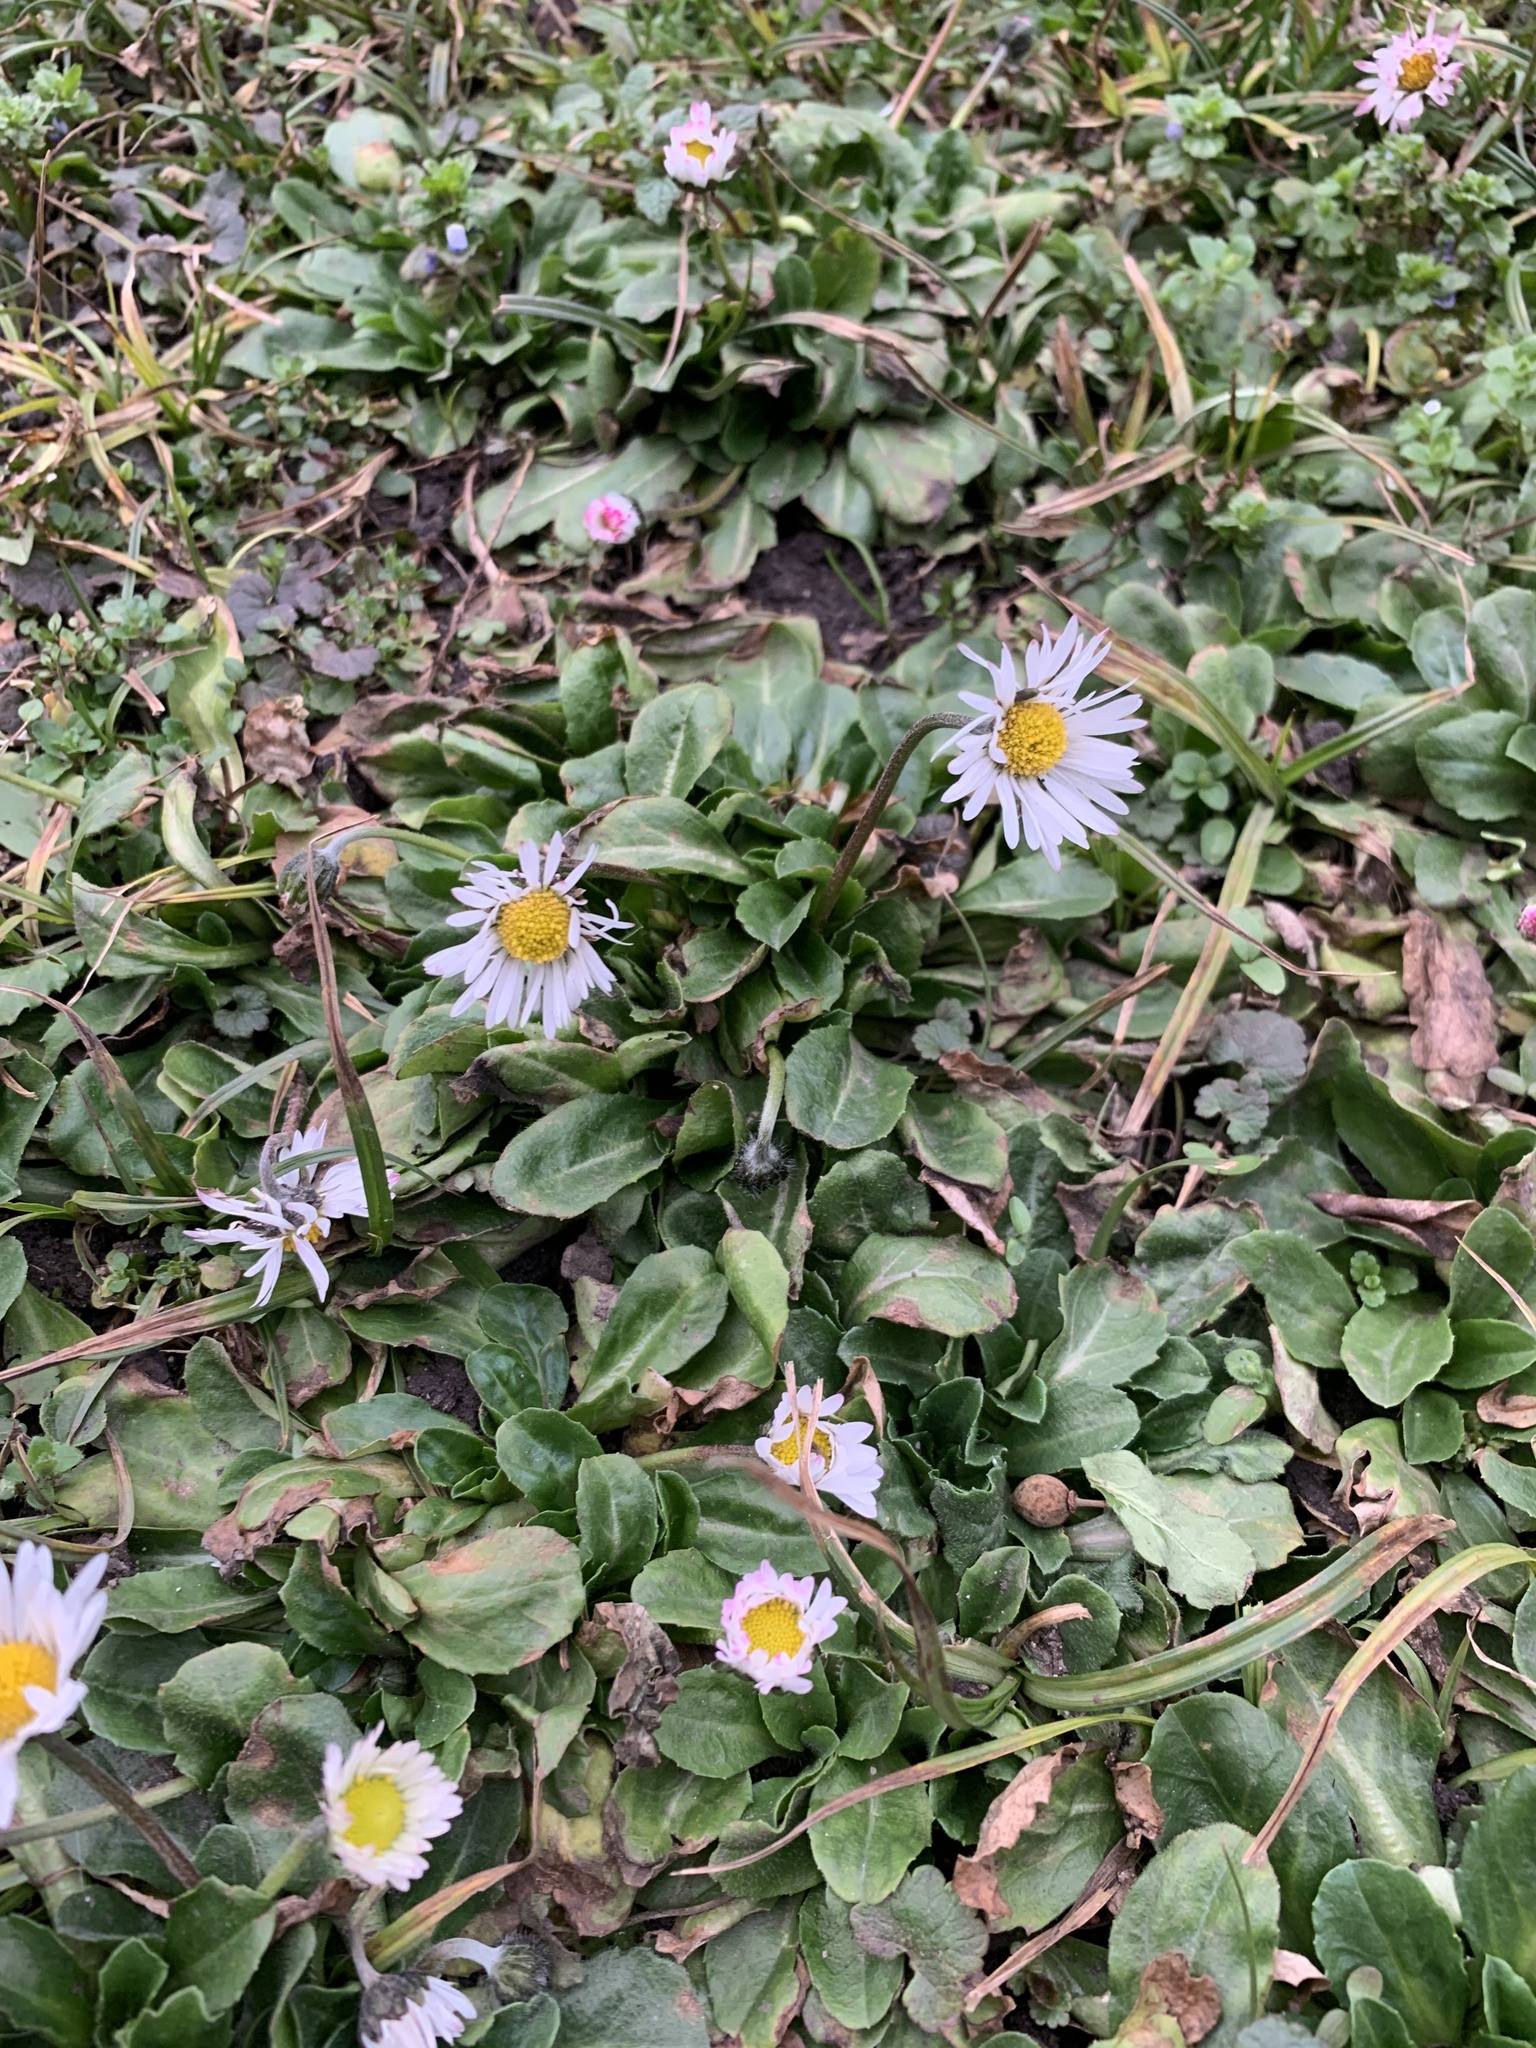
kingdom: Plantae
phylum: Tracheophyta
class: Magnoliopsida
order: Asterales
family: Asteraceae
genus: Bellis
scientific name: Bellis perennis
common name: Lawndaisy
